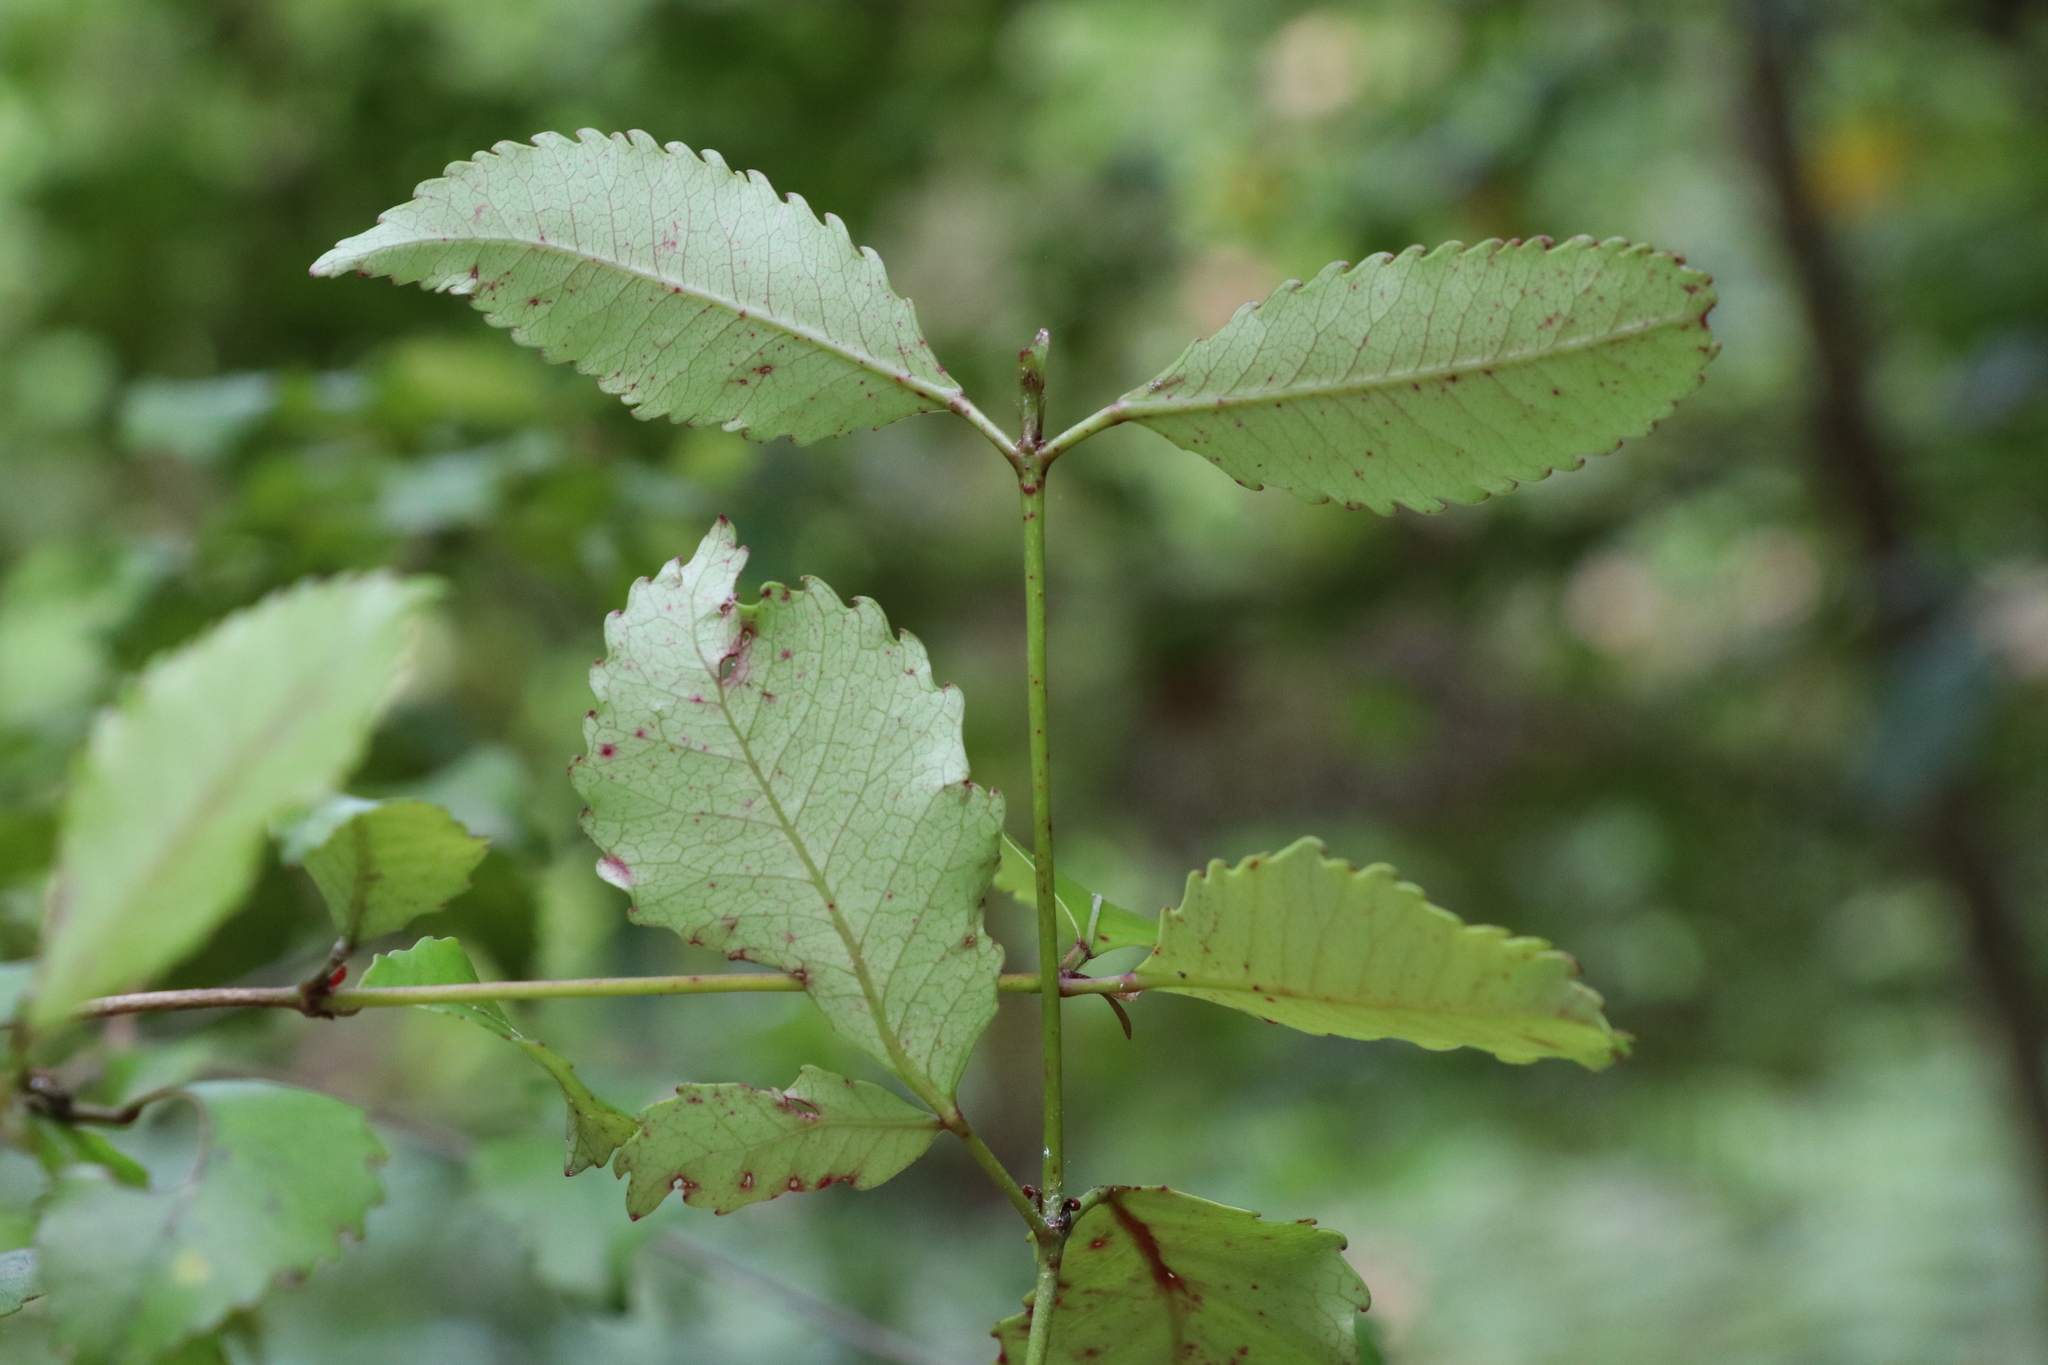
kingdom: Plantae
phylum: Tracheophyta
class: Magnoliopsida
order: Oxalidales
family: Cunoniaceae
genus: Pterophylla
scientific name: Pterophylla racemosa
